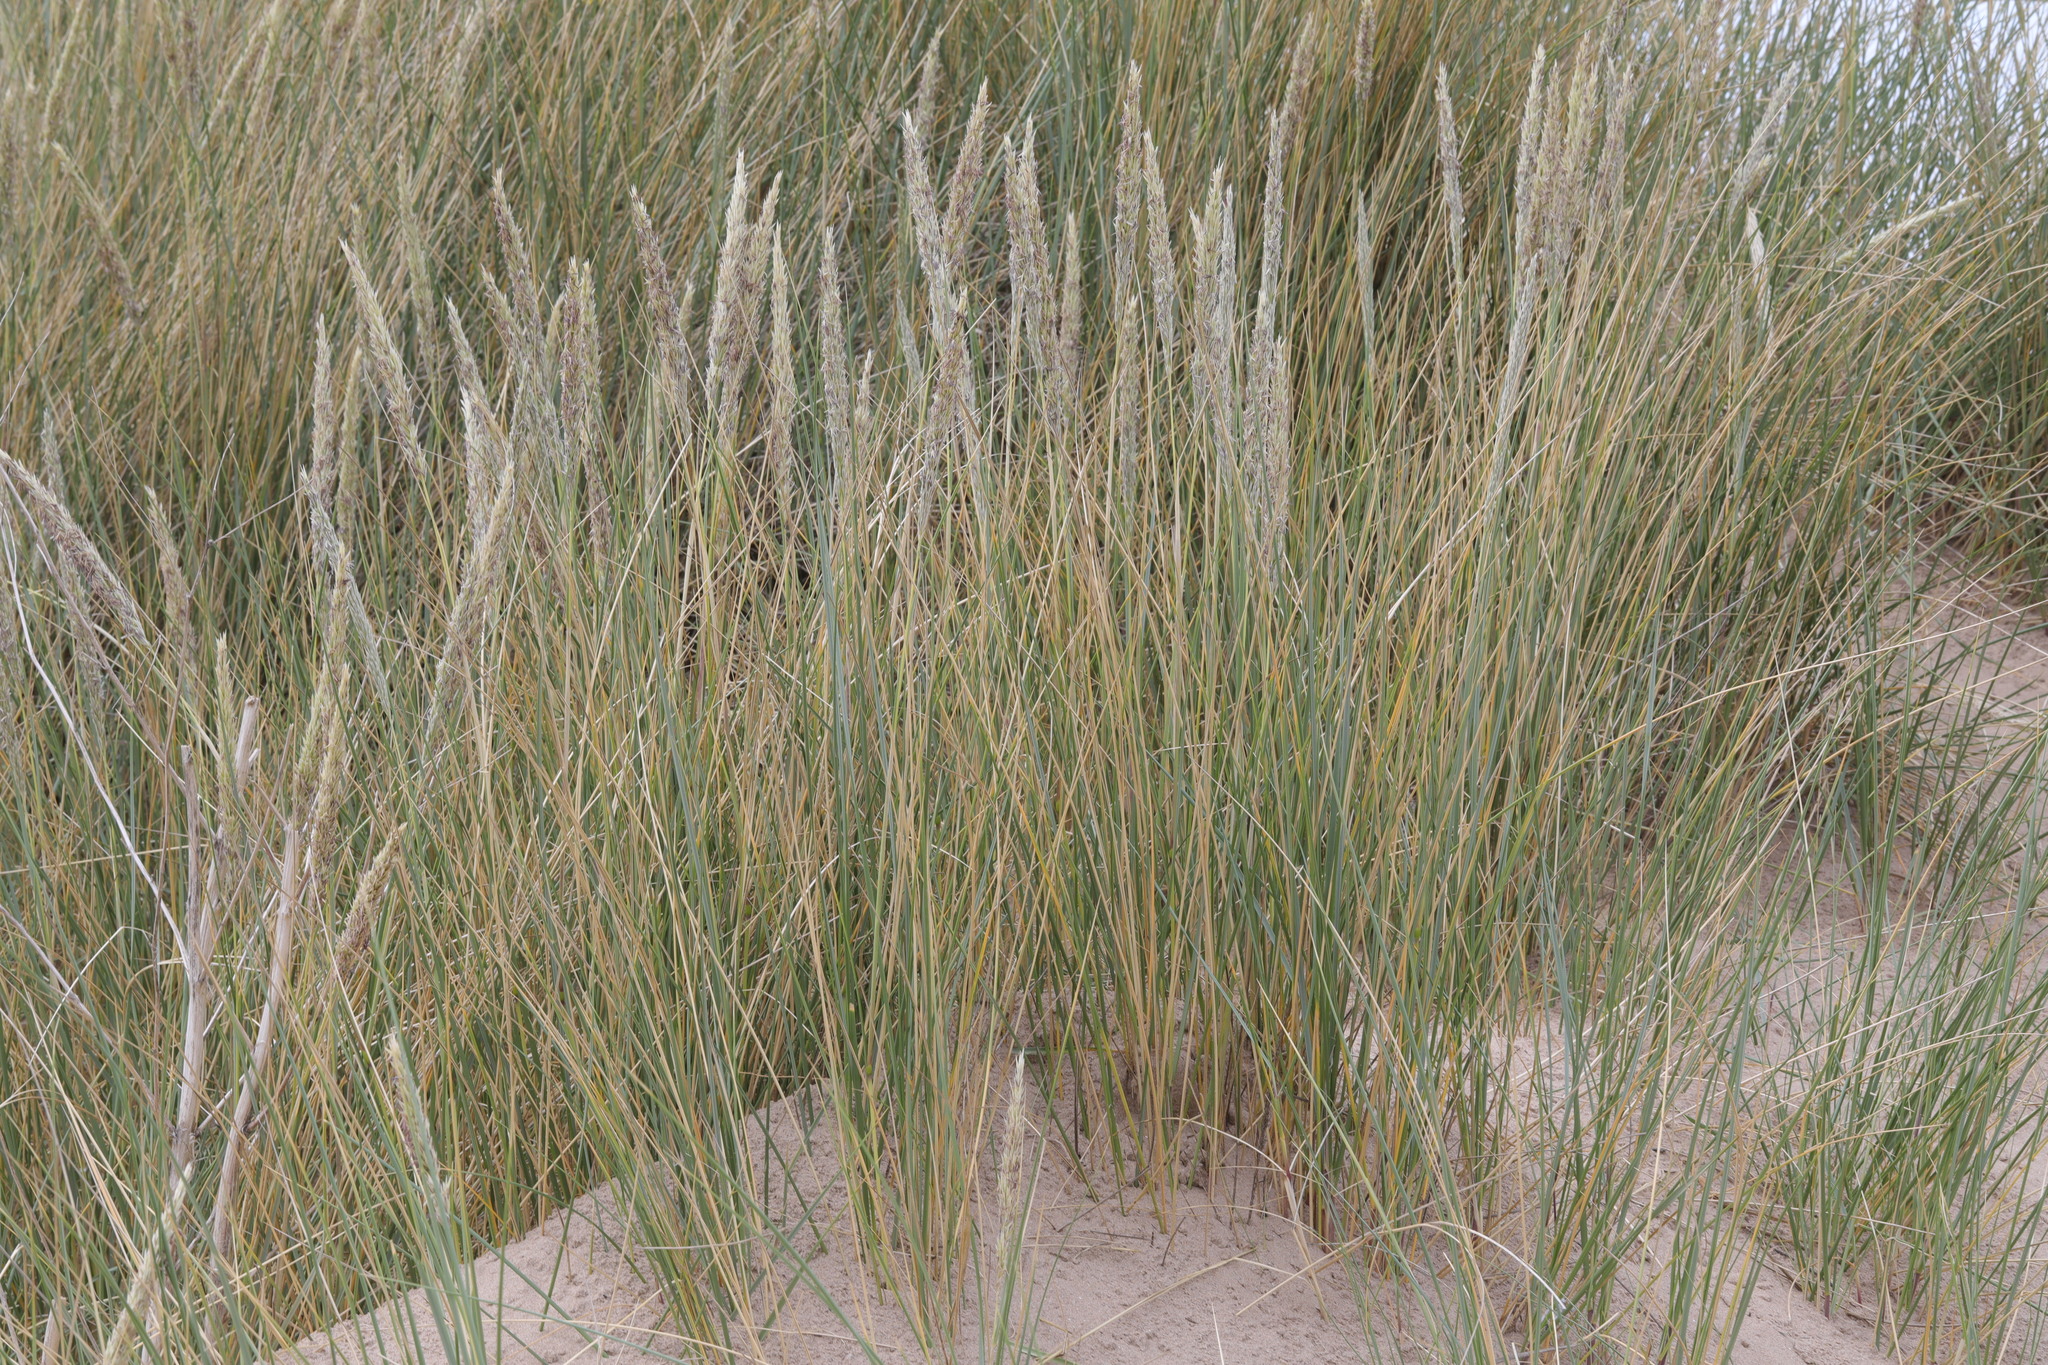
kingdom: Plantae
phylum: Tracheophyta
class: Liliopsida
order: Poales
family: Poaceae
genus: Calamagrostis
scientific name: Calamagrostis arenaria
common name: European beachgrass
